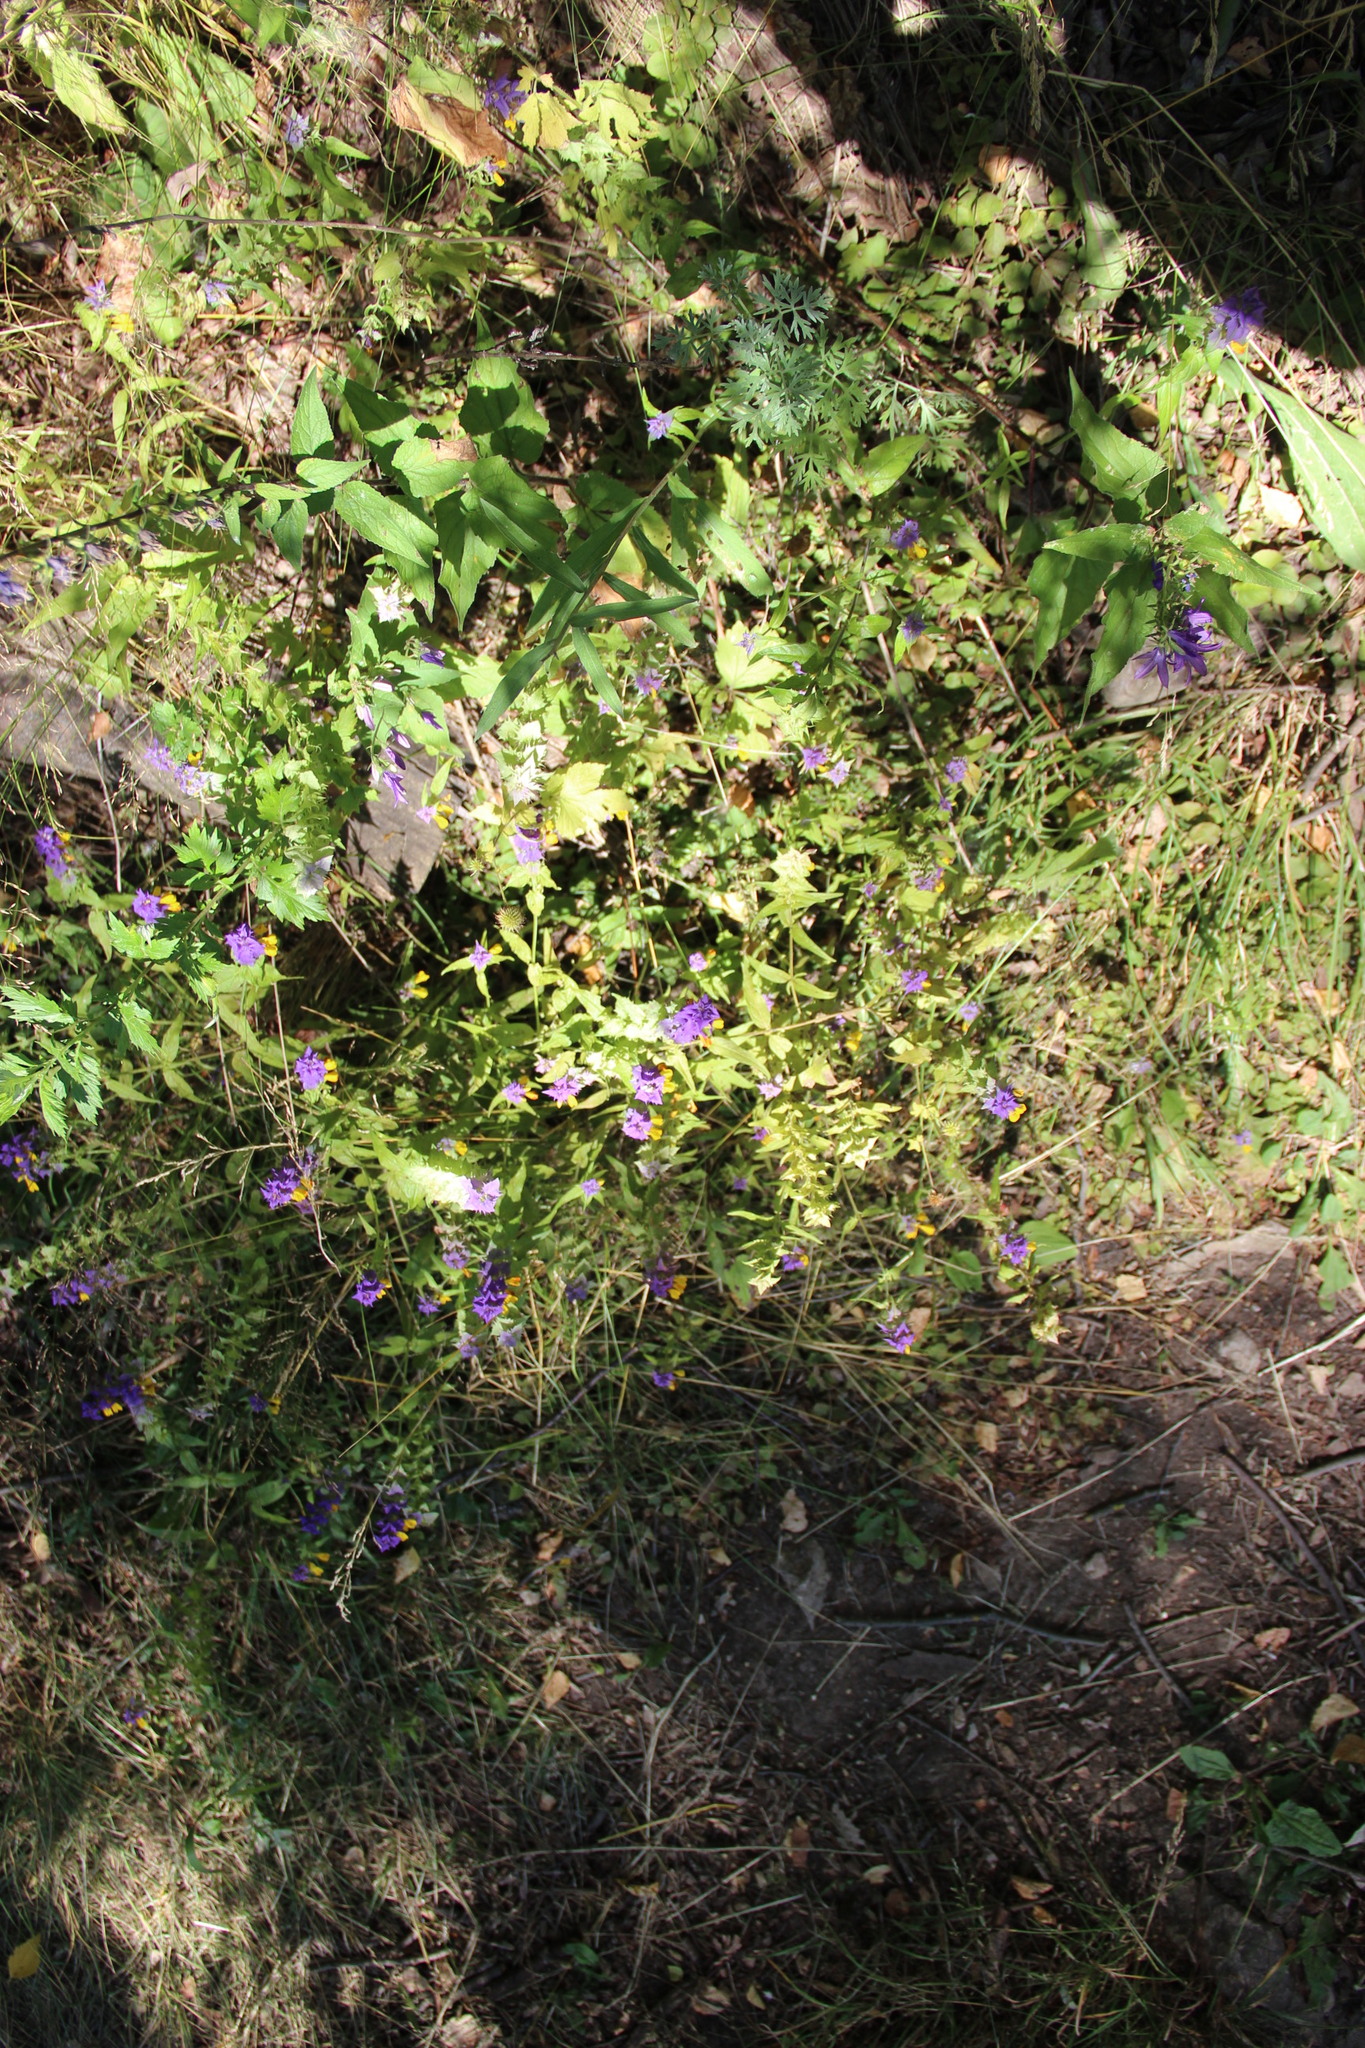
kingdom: Plantae
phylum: Tracheophyta
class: Magnoliopsida
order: Lamiales
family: Orobanchaceae
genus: Melampyrum
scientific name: Melampyrum nemorosum
